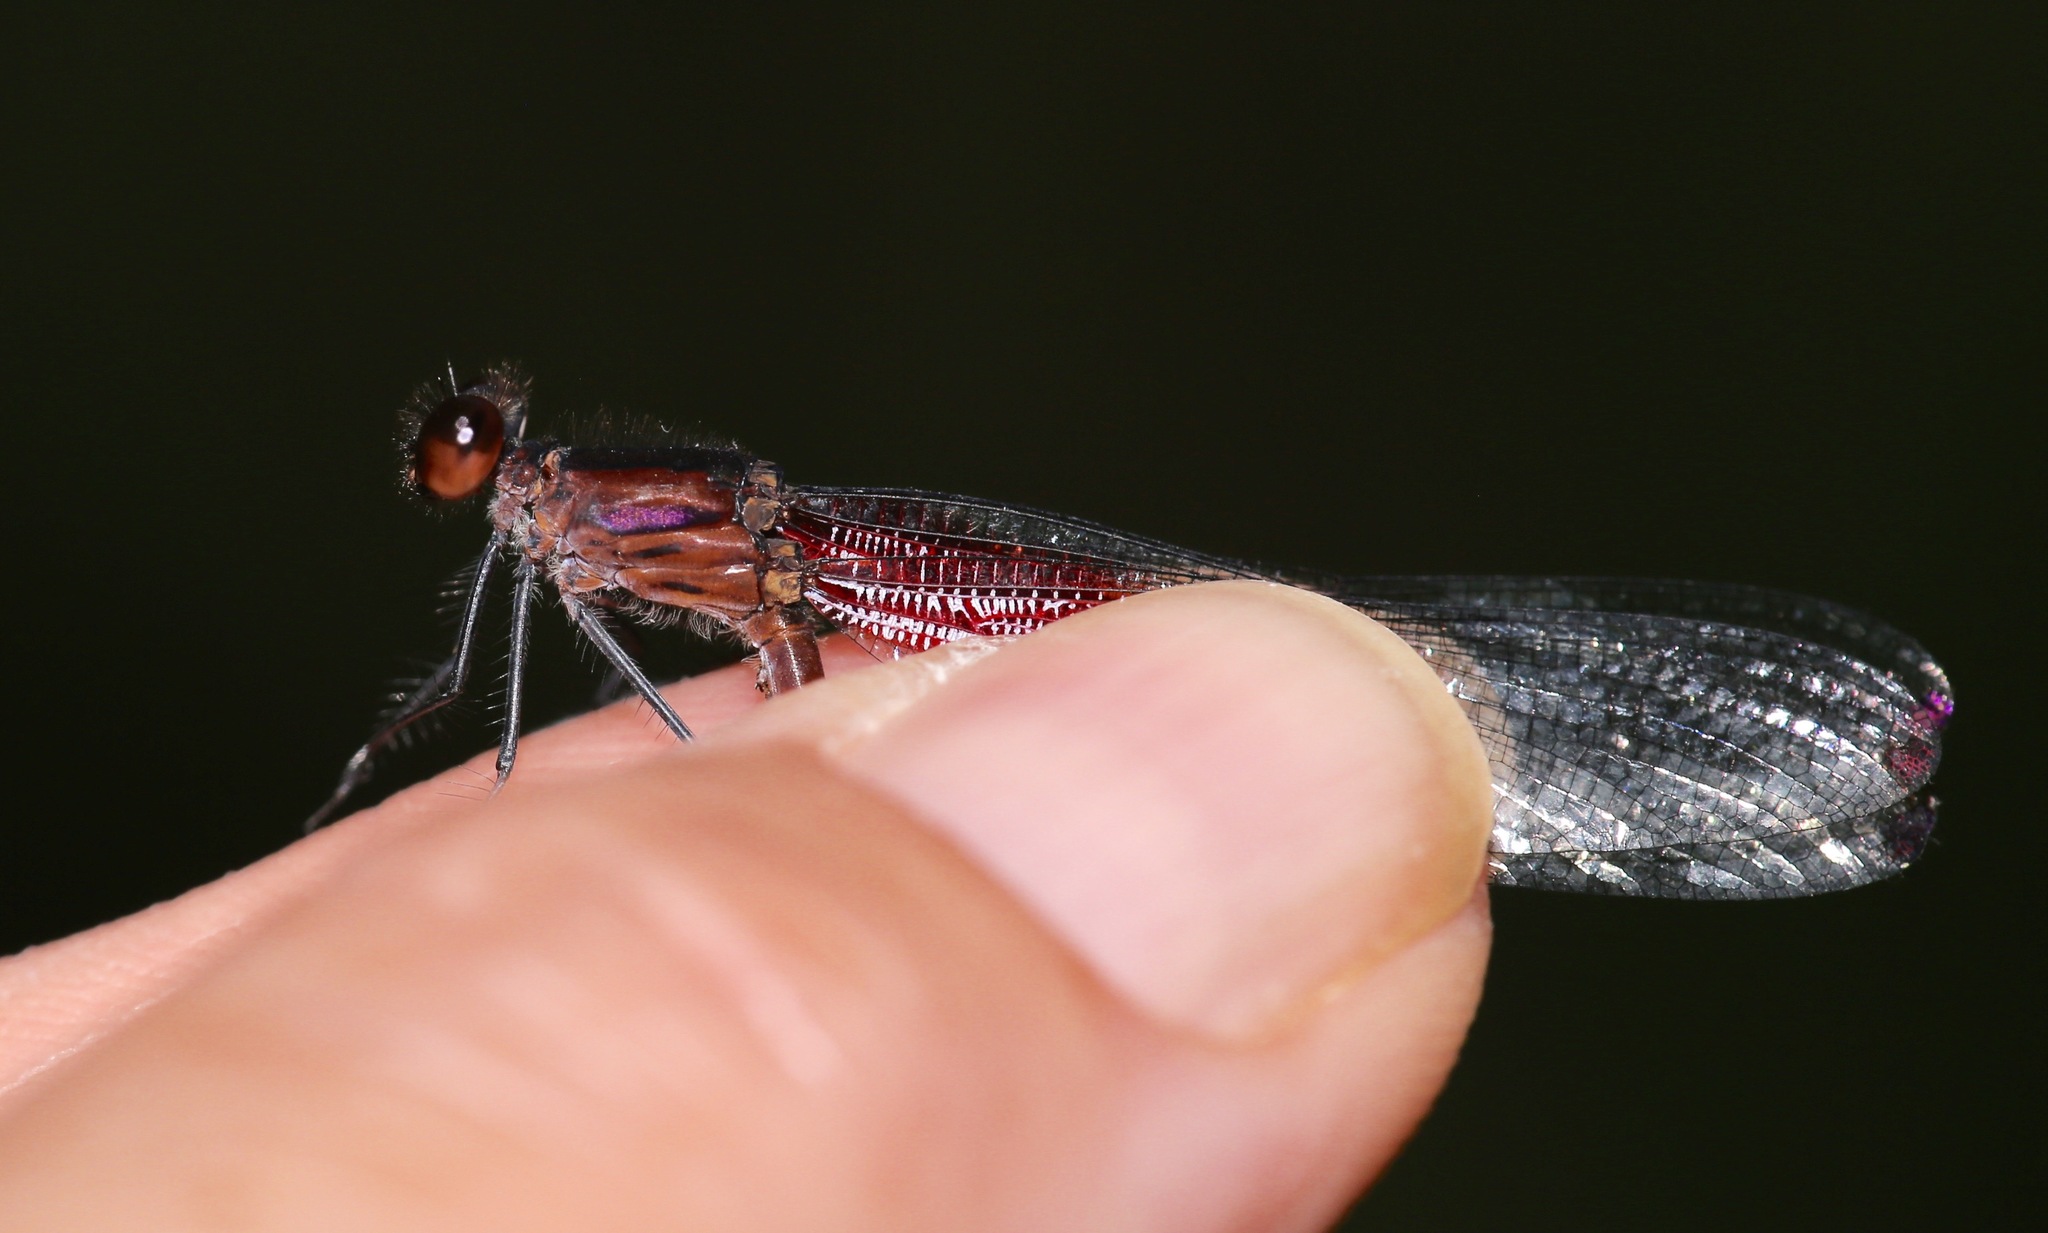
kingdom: Animalia
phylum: Arthropoda
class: Insecta
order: Odonata
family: Calopterygidae
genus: Hetaerina
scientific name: Hetaerina occisa
